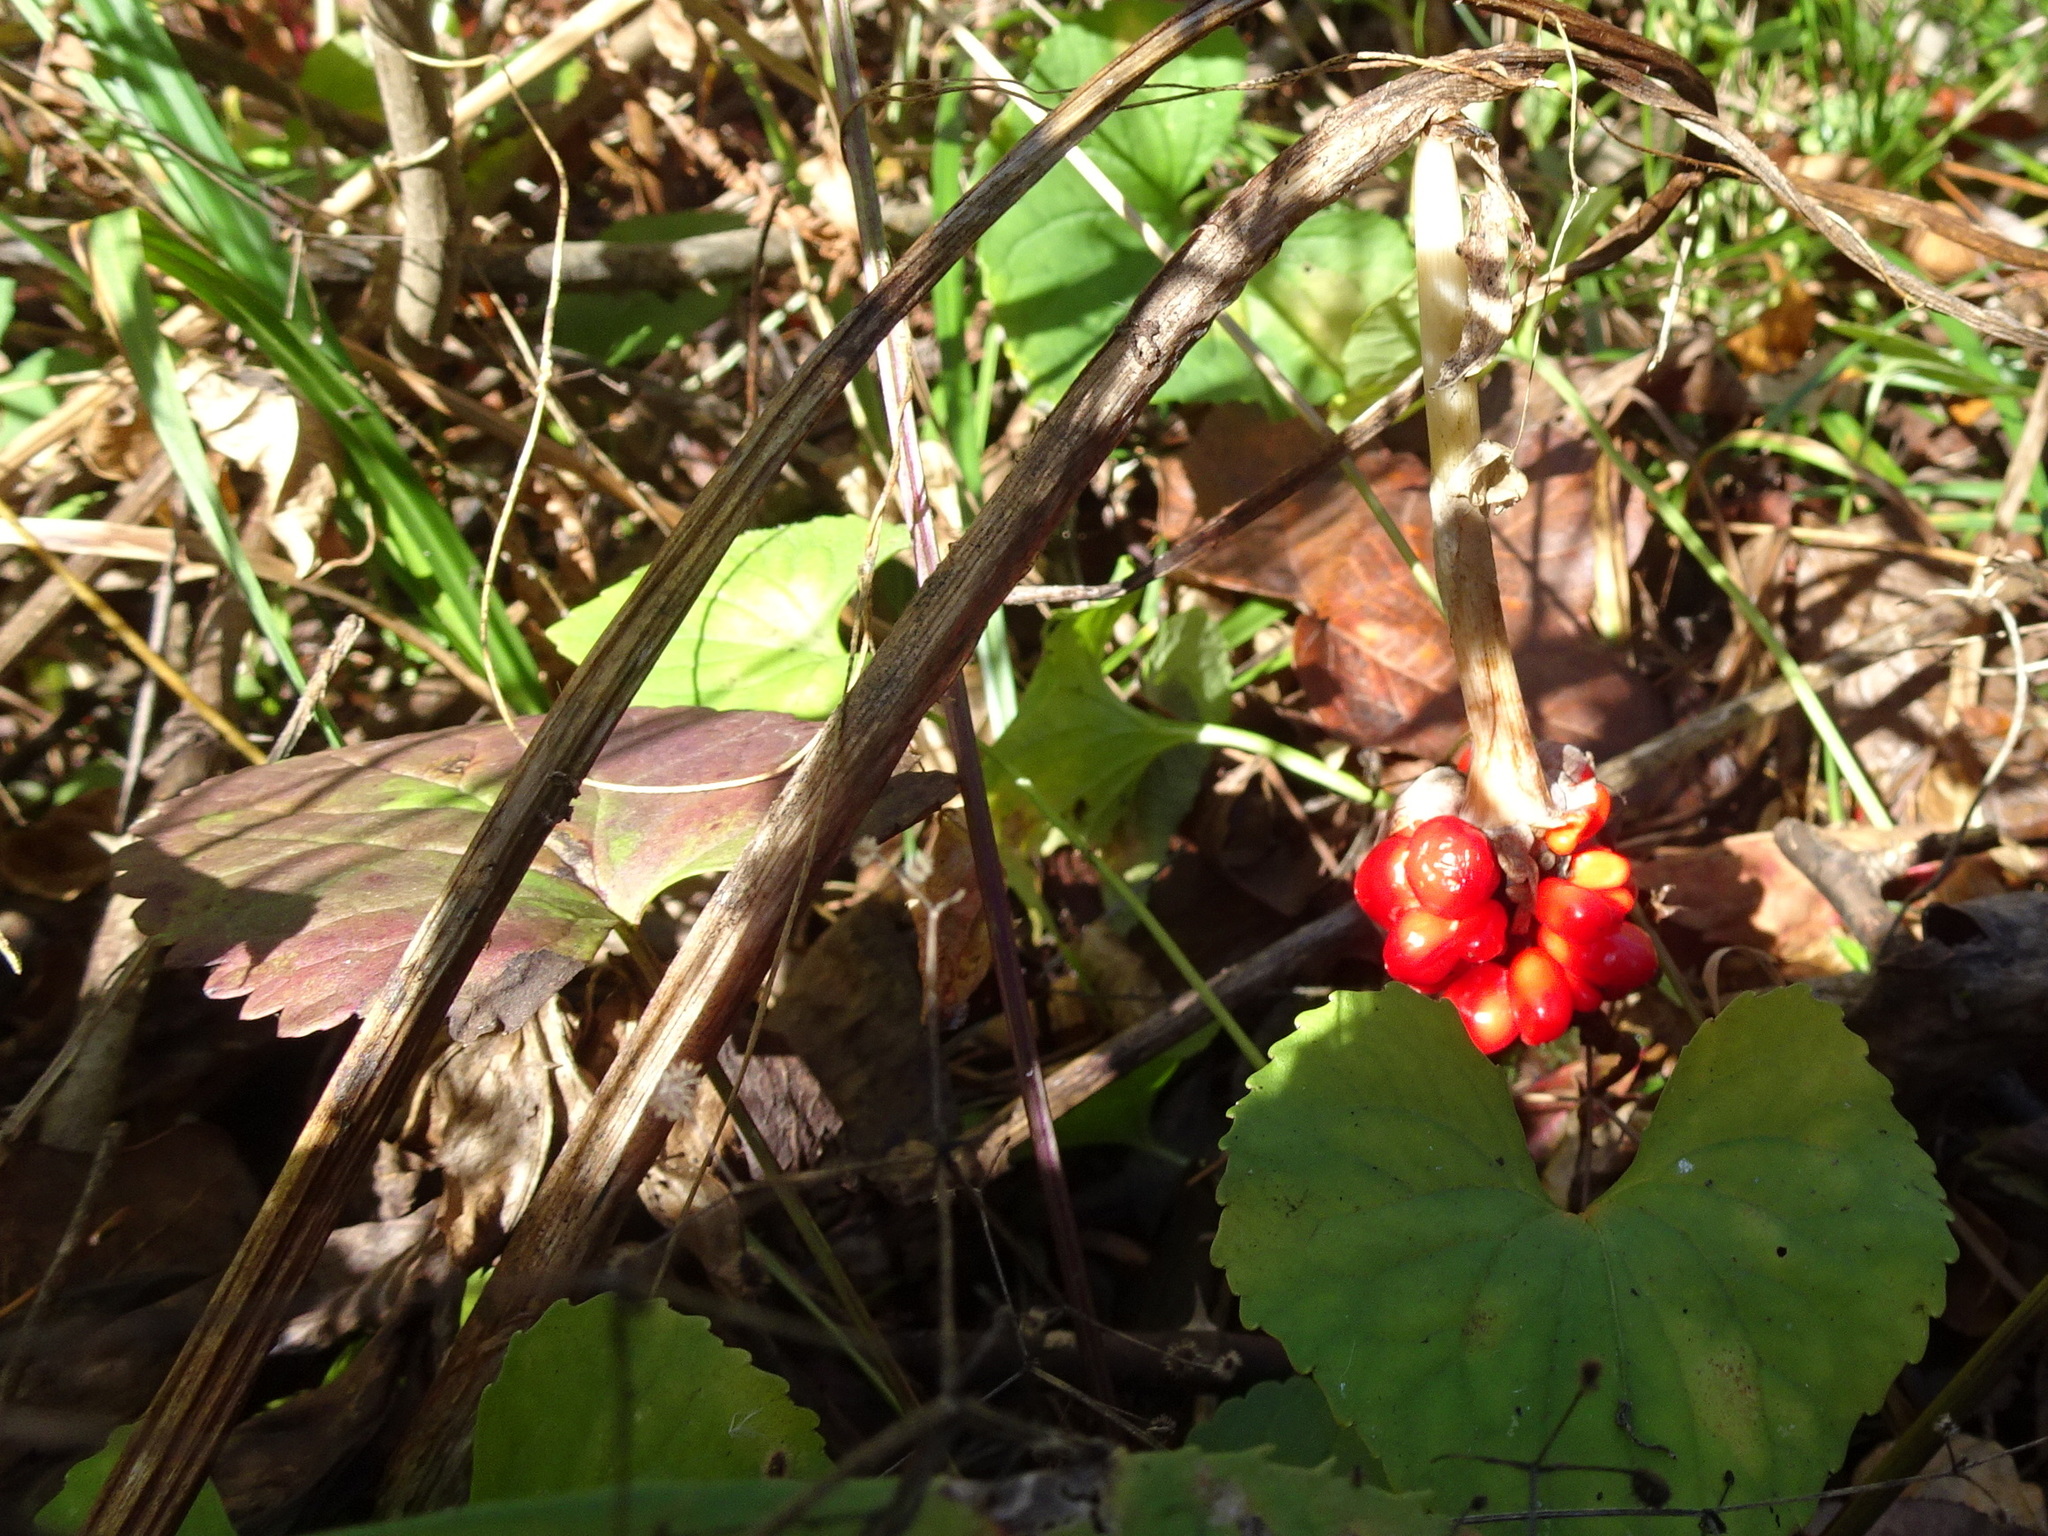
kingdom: Plantae
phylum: Tracheophyta
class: Liliopsida
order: Alismatales
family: Araceae
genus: Arisaema
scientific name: Arisaema triphyllum
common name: Jack-in-the-pulpit
